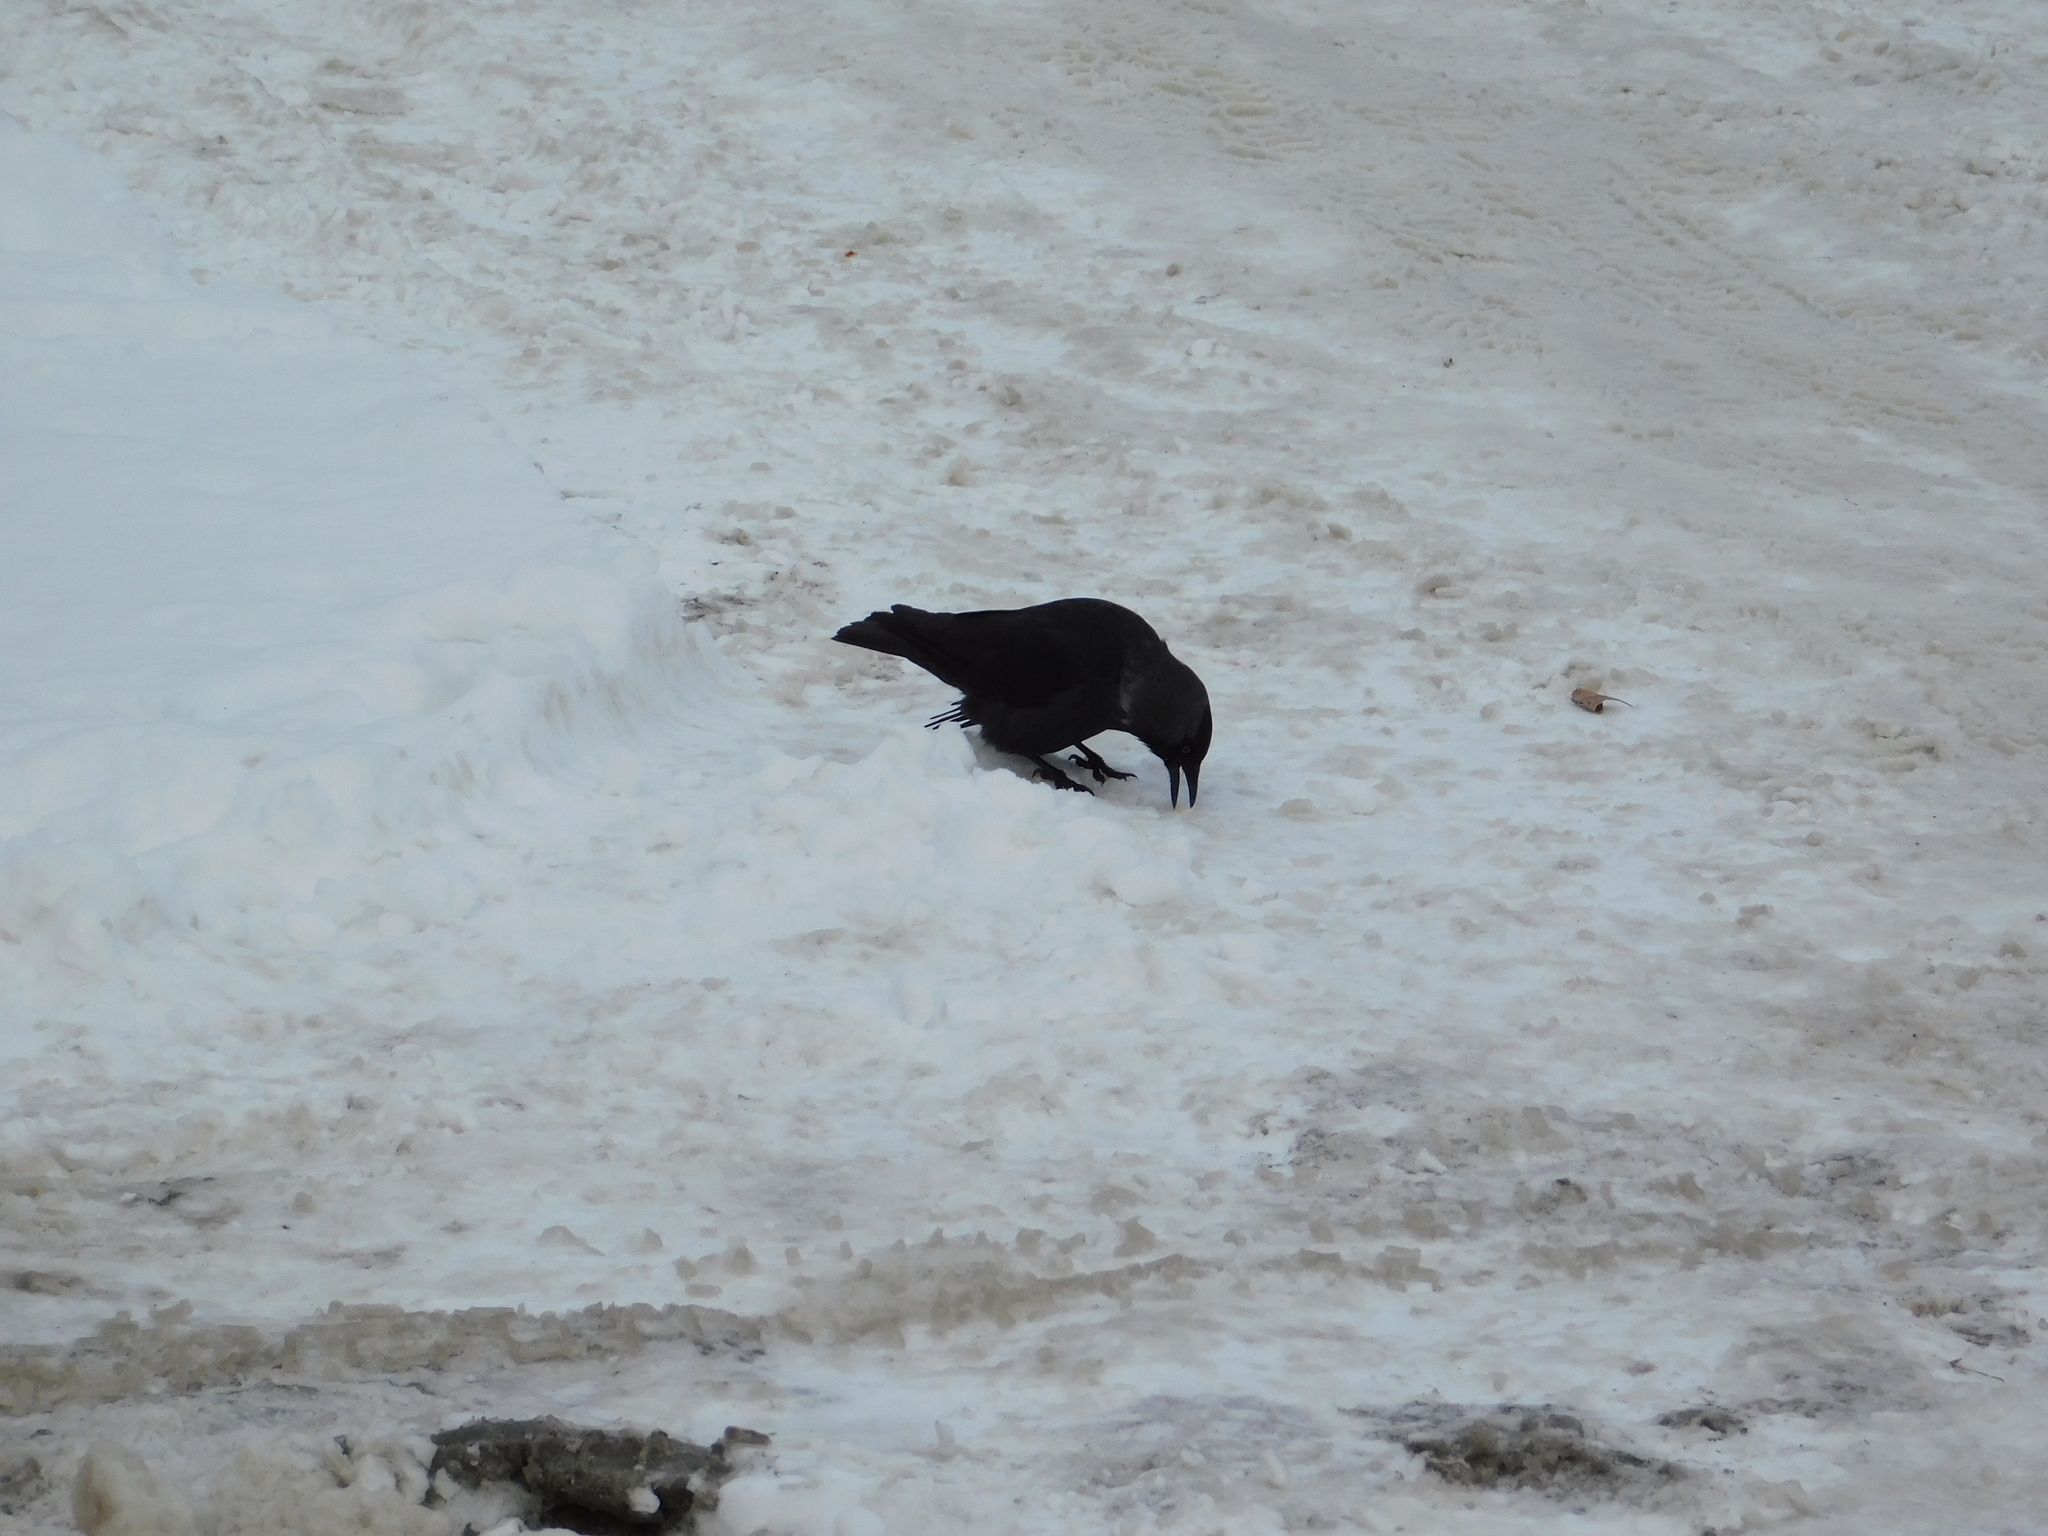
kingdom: Animalia
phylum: Chordata
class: Aves
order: Passeriformes
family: Corvidae
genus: Coloeus
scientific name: Coloeus monedula
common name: Western jackdaw
